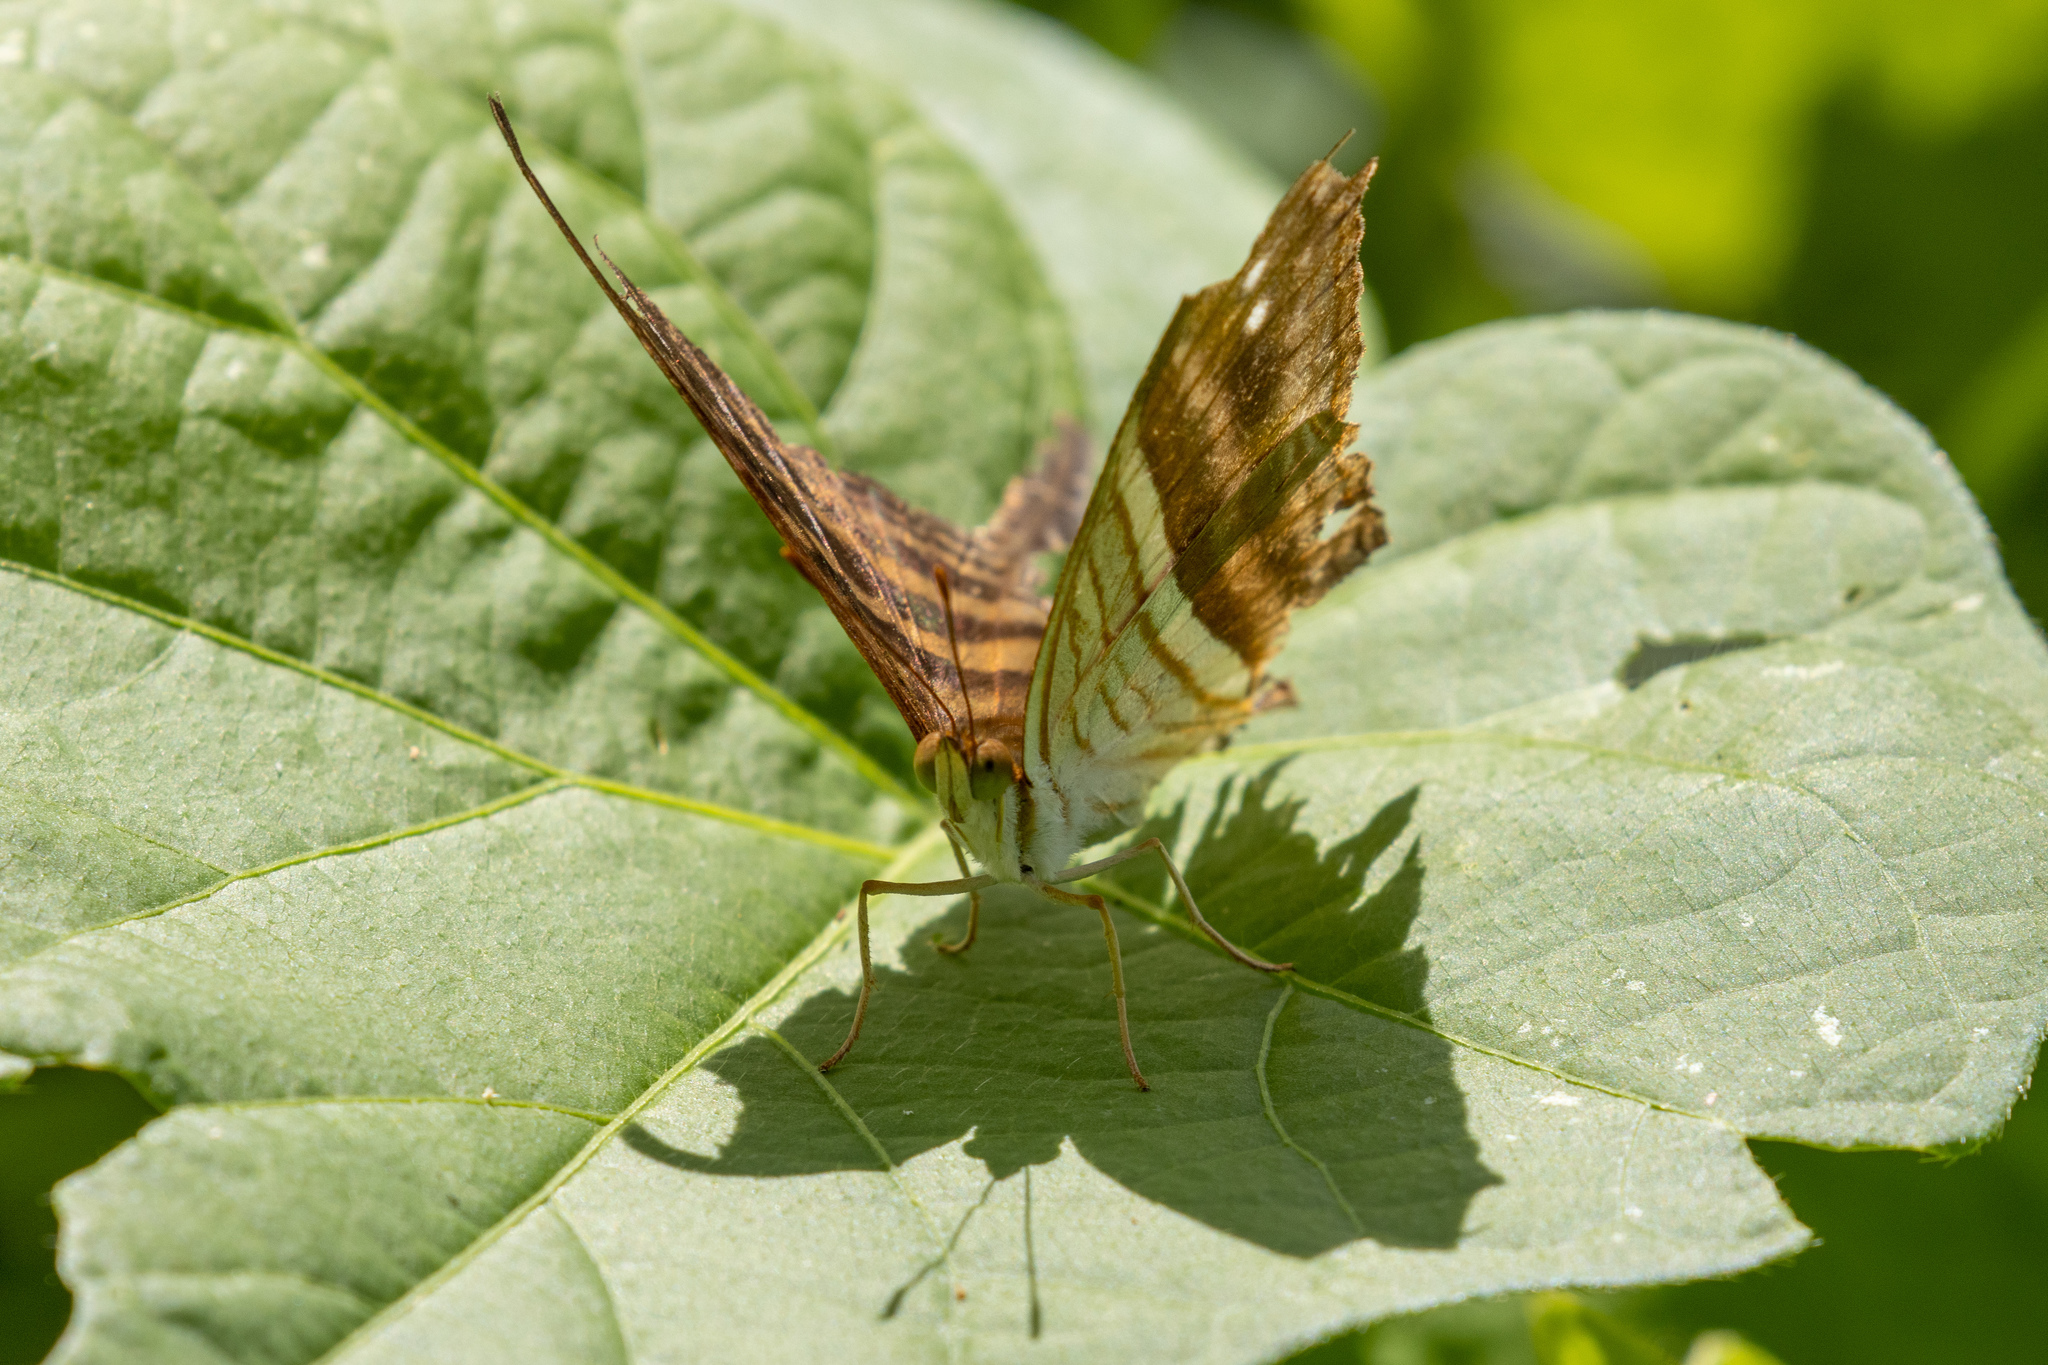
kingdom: Animalia
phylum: Arthropoda
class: Insecta
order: Lepidoptera
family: Nymphalidae
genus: Marpesia
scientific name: Marpesia chiron
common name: Many-banded daggerwing
